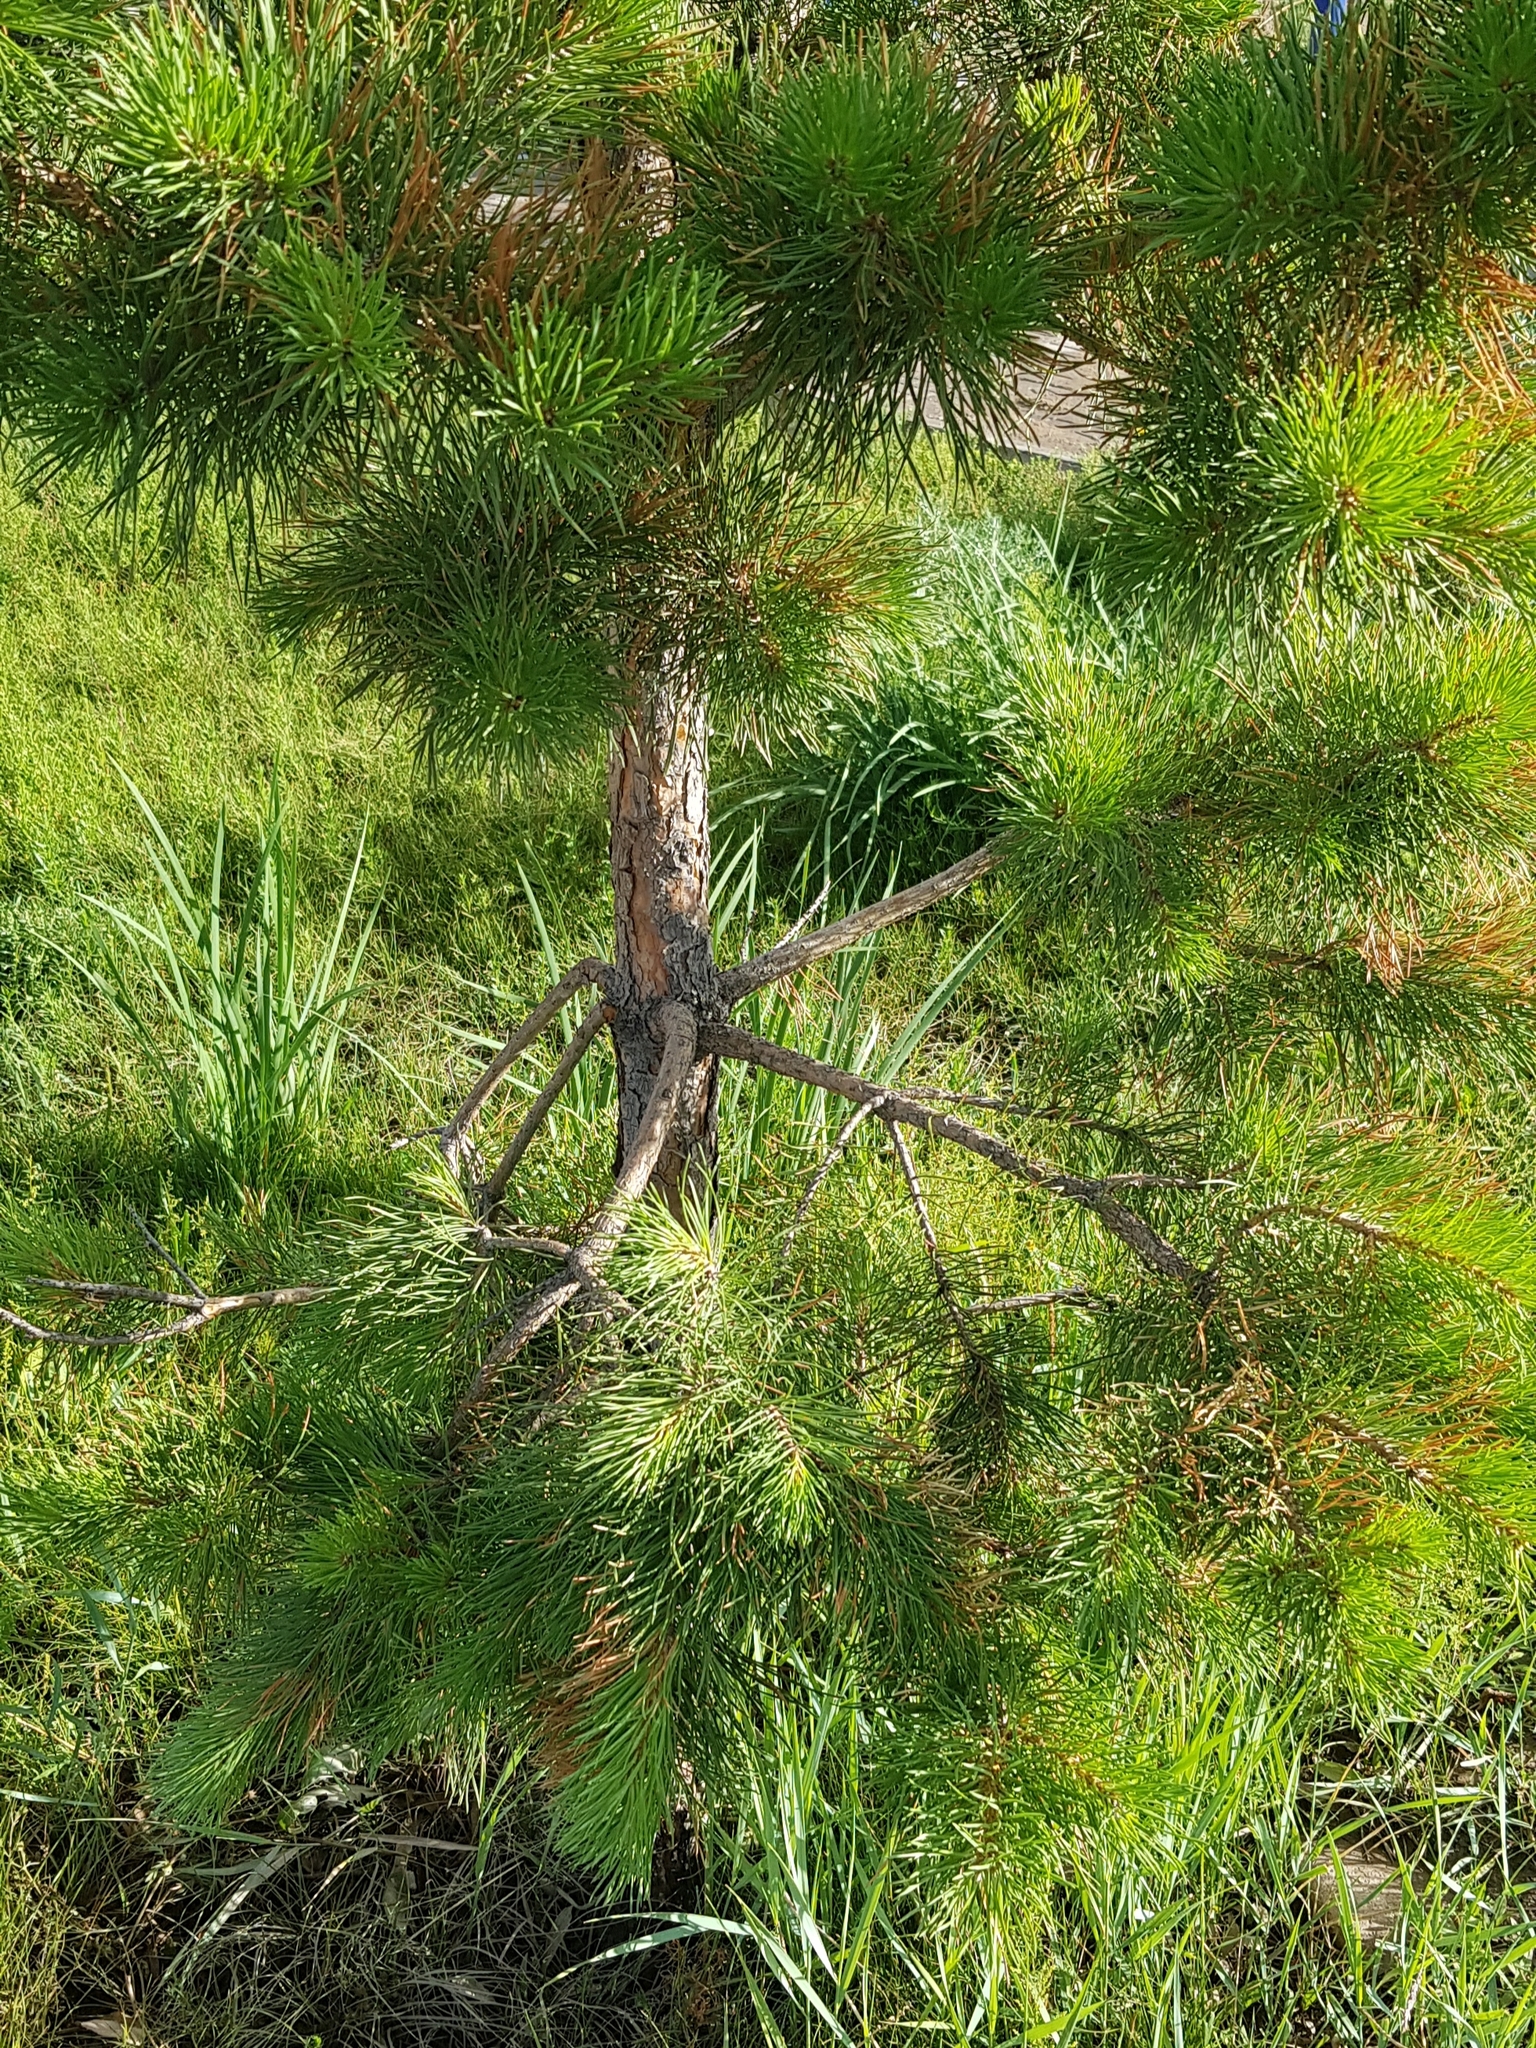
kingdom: Plantae
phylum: Tracheophyta
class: Pinopsida
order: Pinales
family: Pinaceae
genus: Pinus
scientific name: Pinus sylvestris
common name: Scots pine
